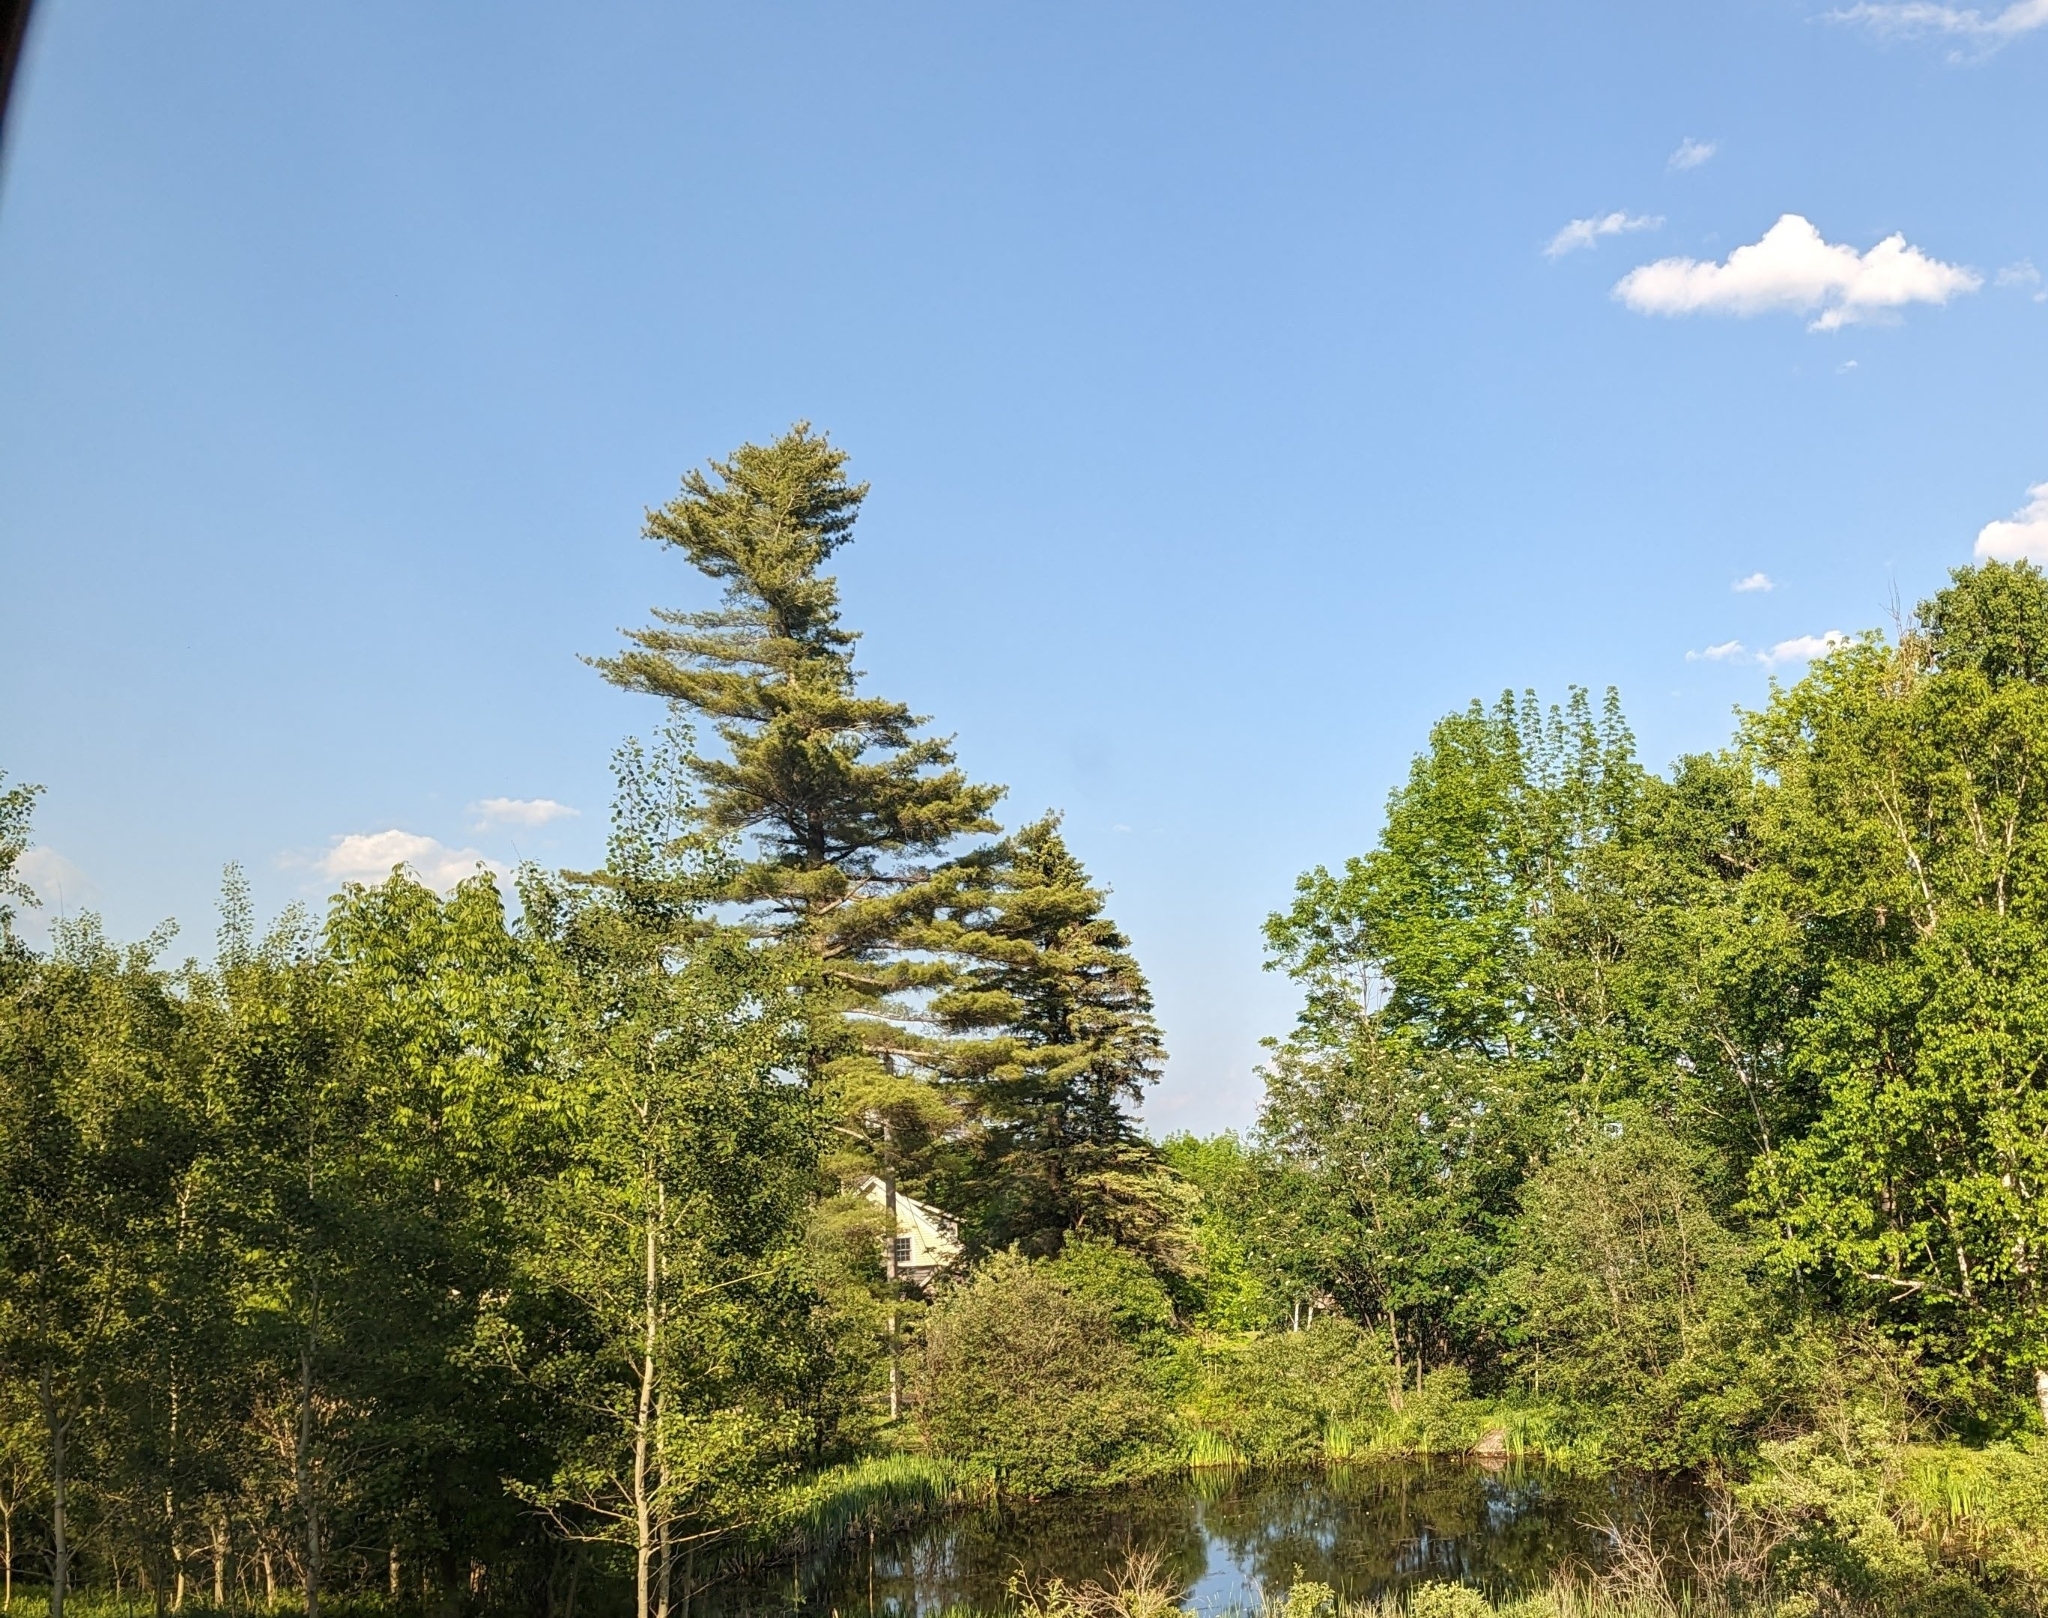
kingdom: Plantae
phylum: Tracheophyta
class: Pinopsida
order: Pinales
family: Pinaceae
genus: Pinus
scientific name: Pinus strobus
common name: Weymouth pine
